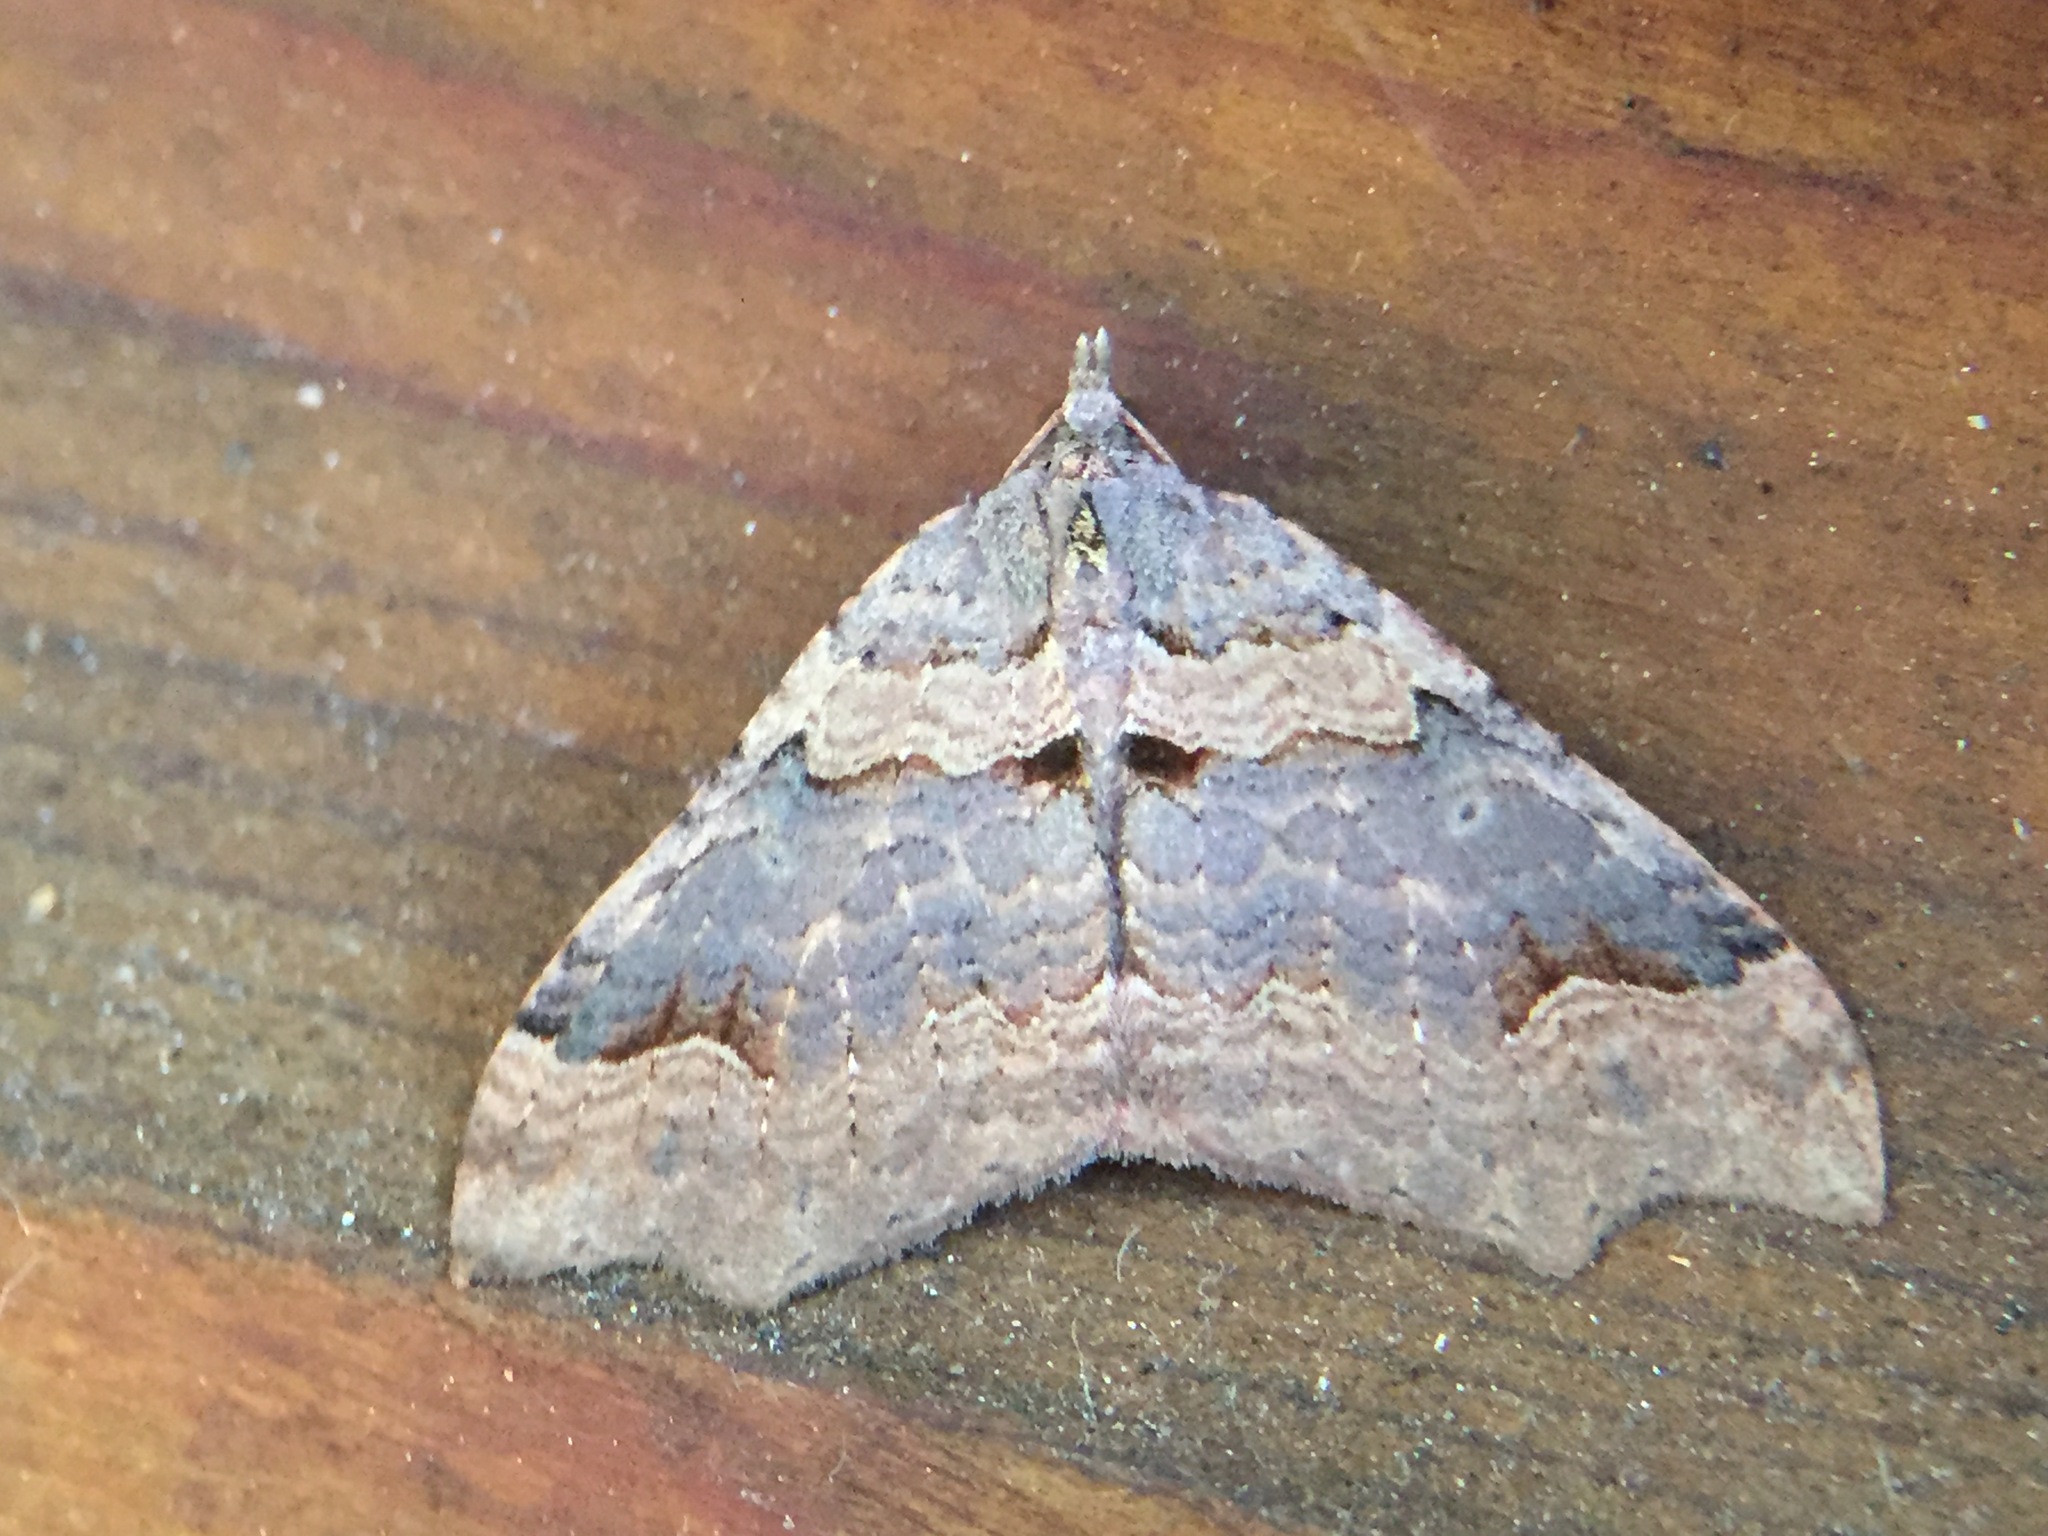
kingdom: Animalia
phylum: Arthropoda
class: Insecta
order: Lepidoptera
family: Geometridae
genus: Austrocidaria
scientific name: Austrocidaria parora
